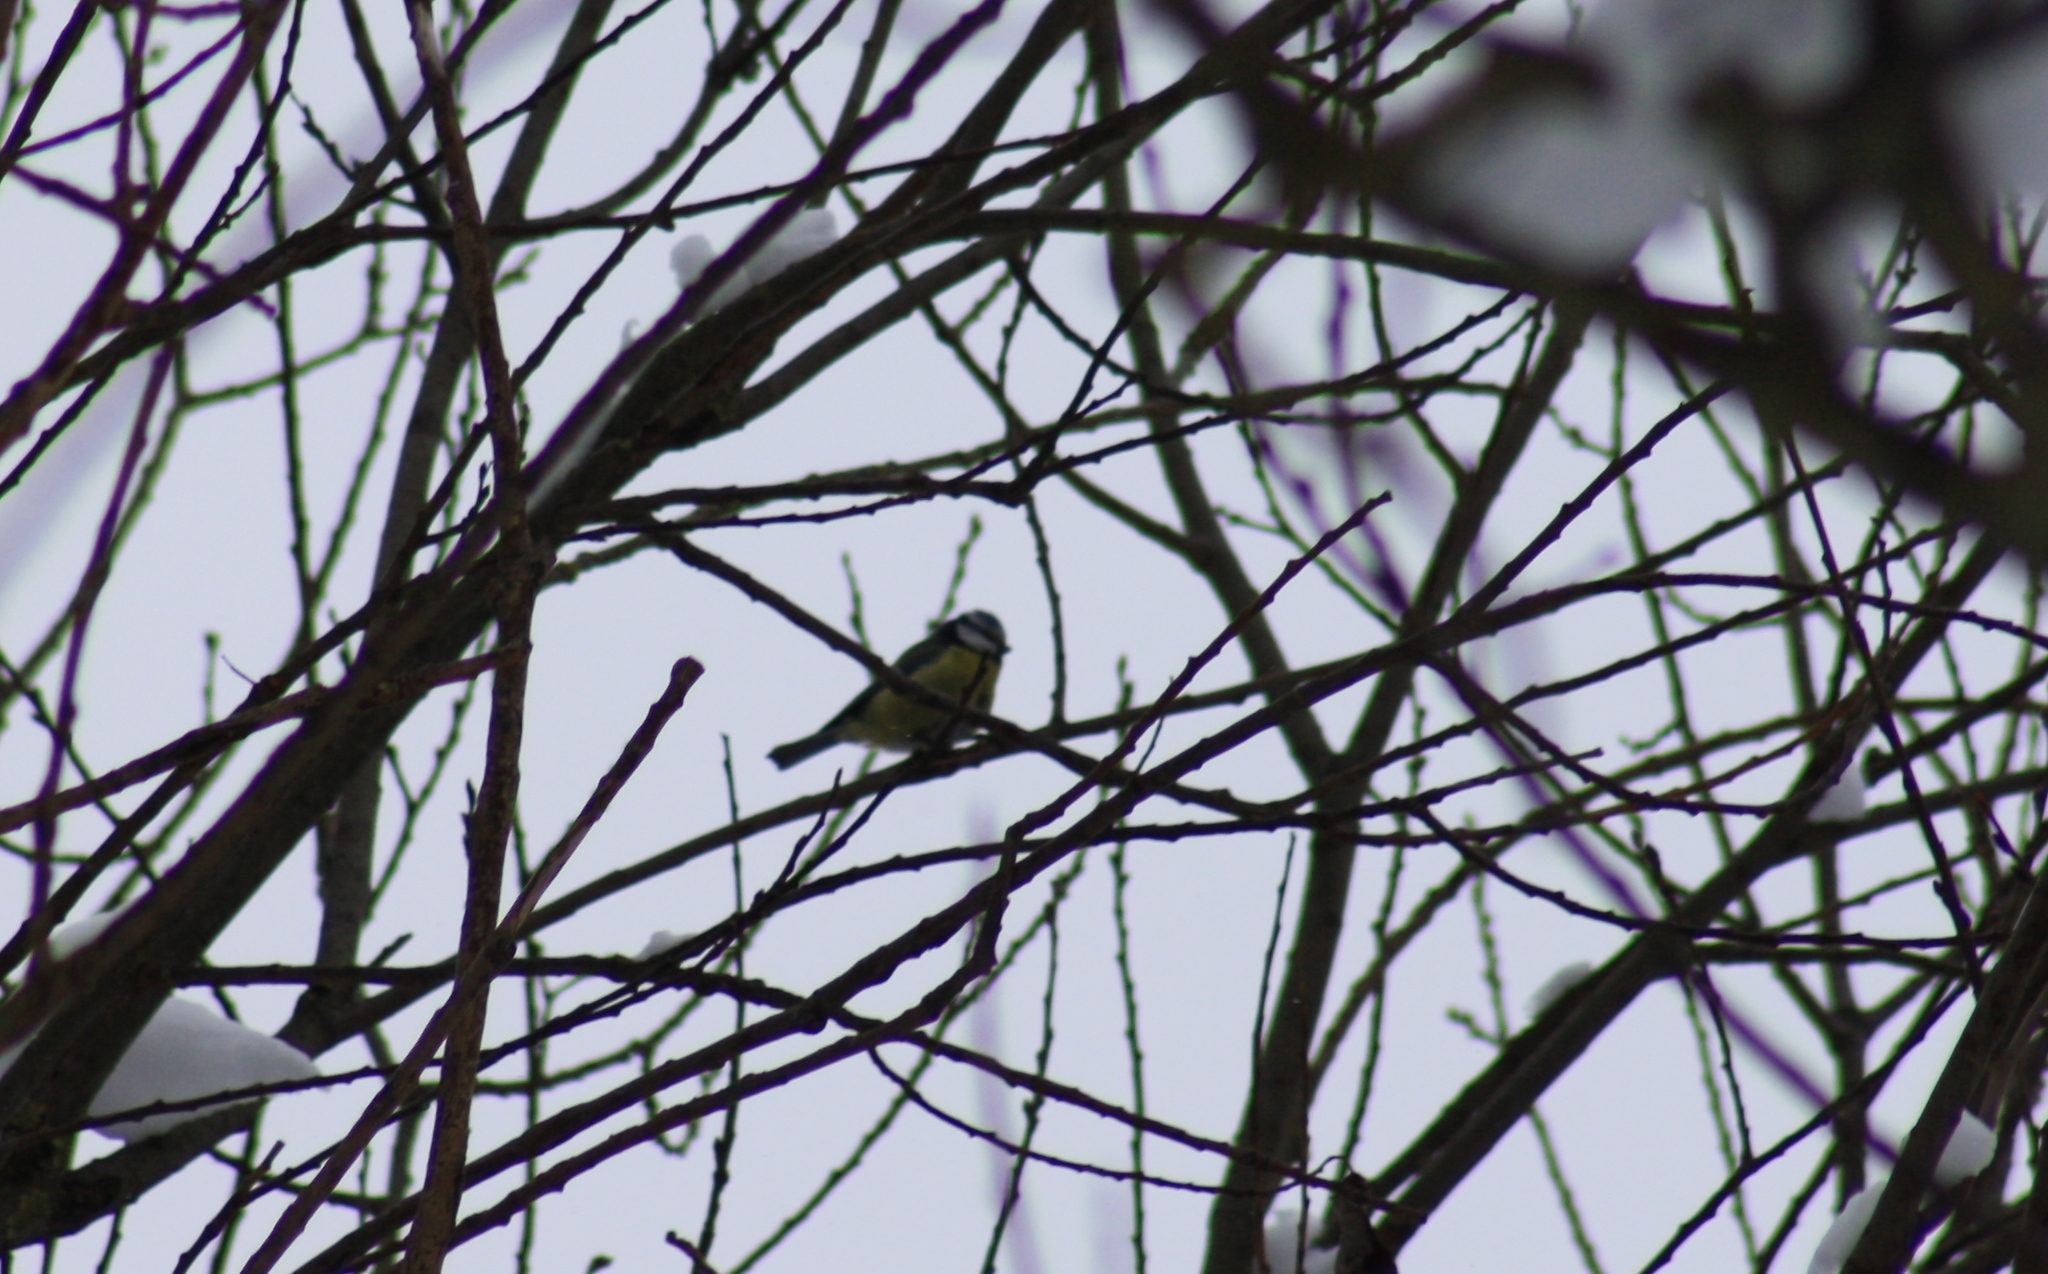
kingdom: Animalia
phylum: Chordata
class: Aves
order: Passeriformes
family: Paridae
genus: Cyanistes
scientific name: Cyanistes caeruleus
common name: Eurasian blue tit
